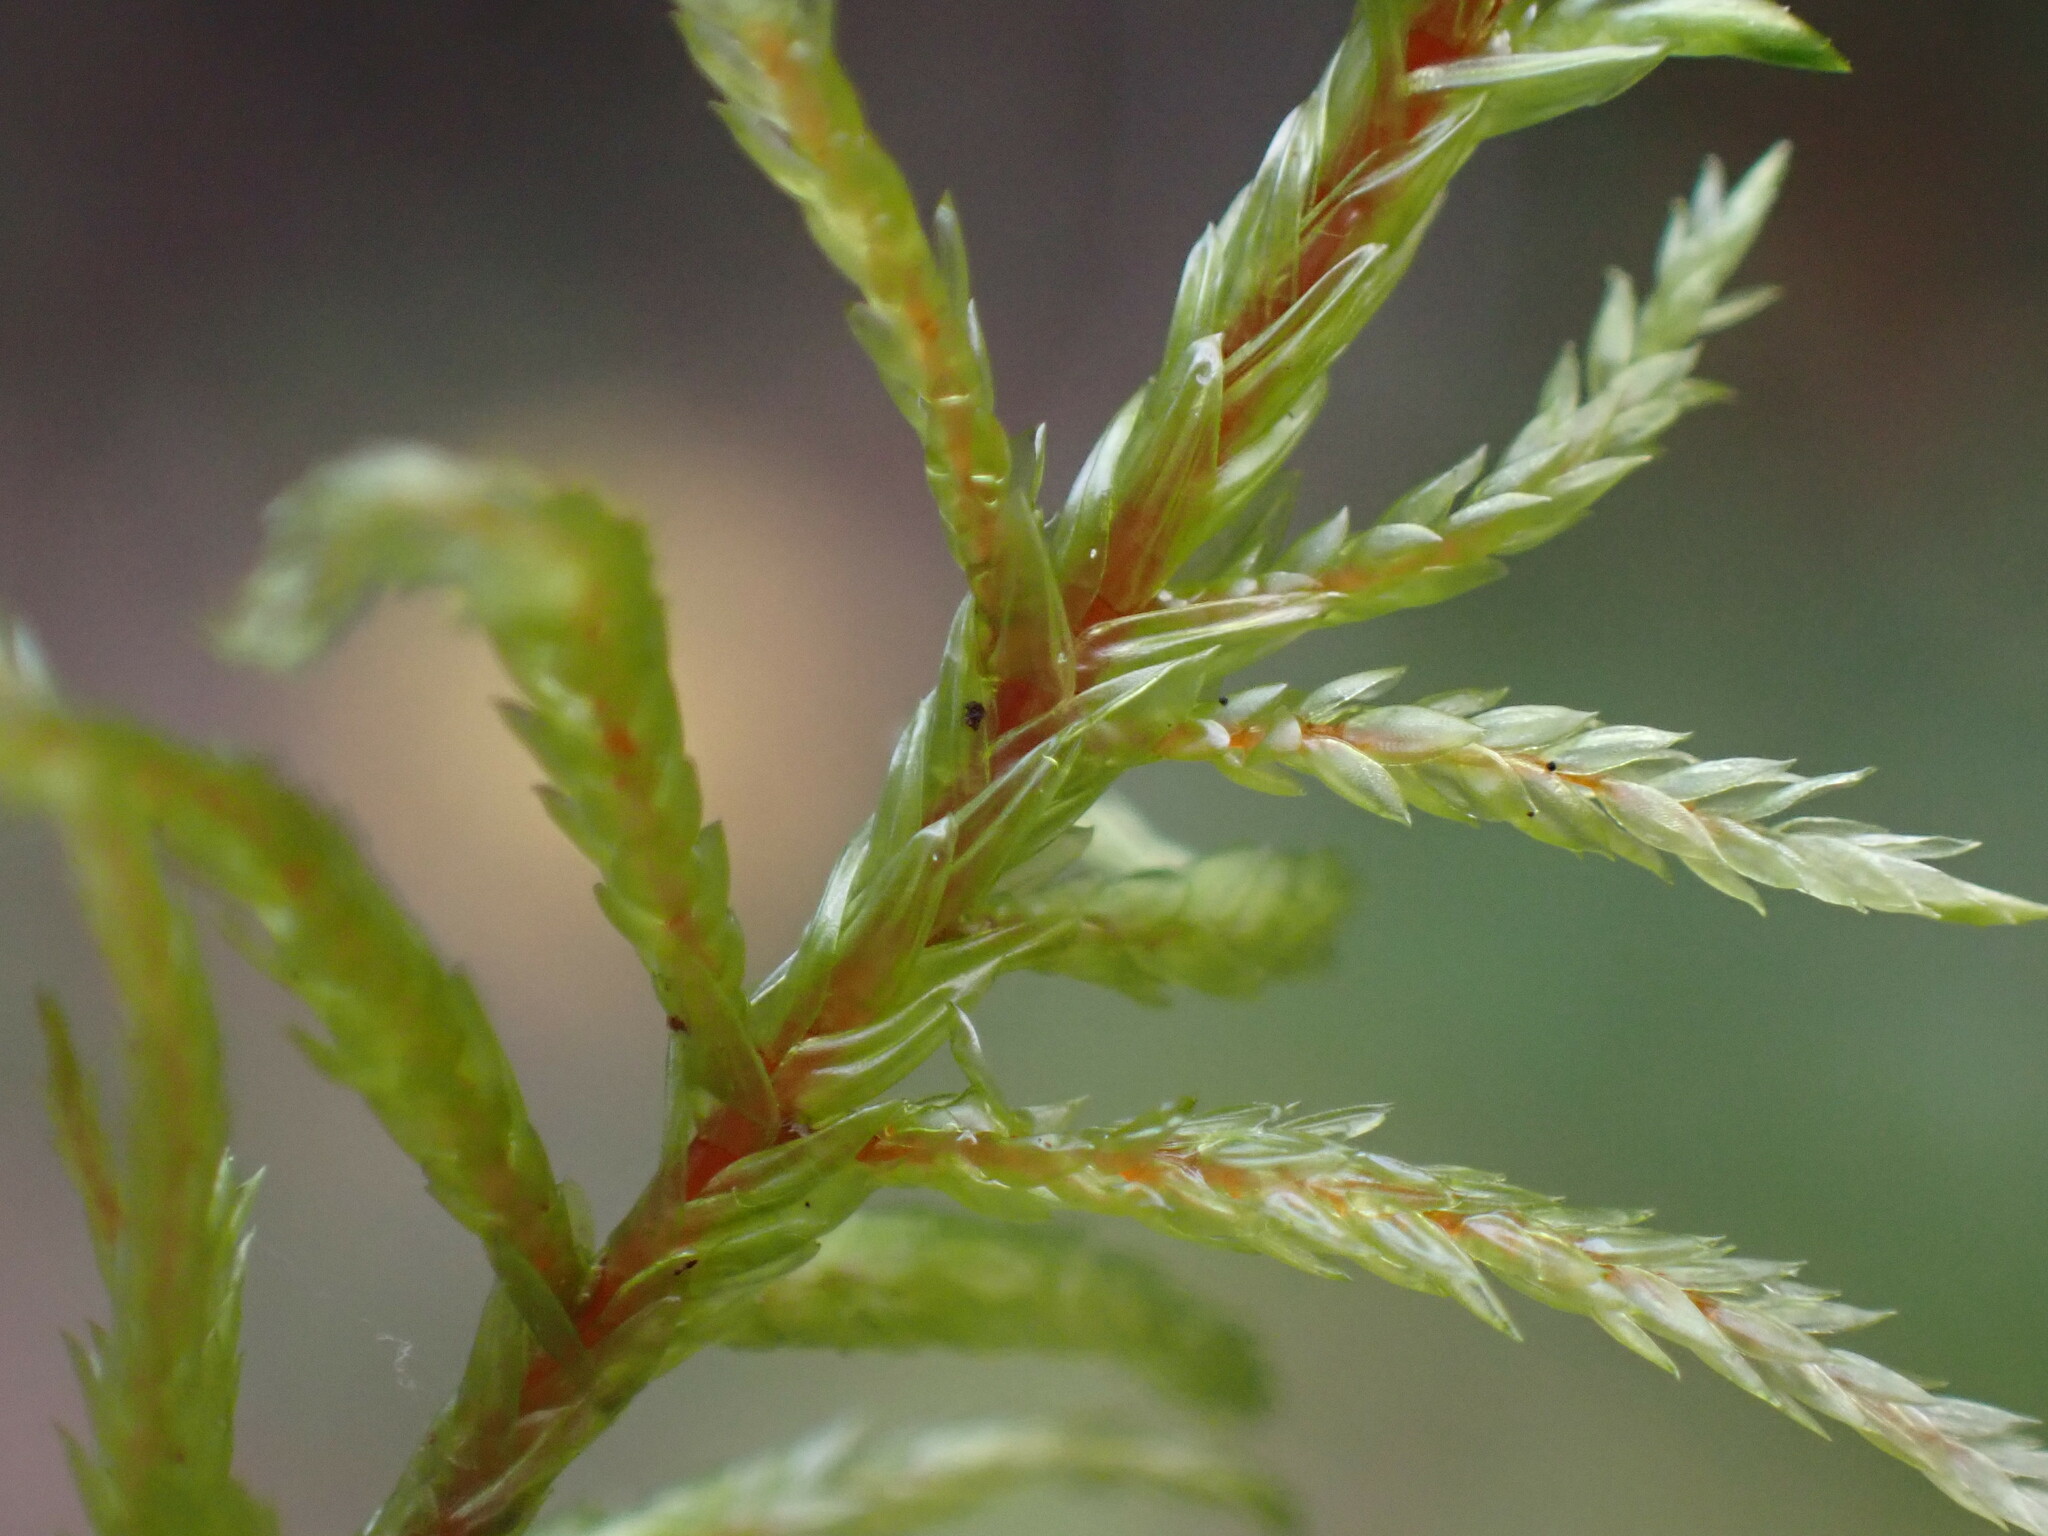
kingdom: Plantae
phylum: Bryophyta
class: Bryopsida
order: Hypnales
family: Hylocomiaceae
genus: Pleurozium
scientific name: Pleurozium schreberi
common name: Red-stemmed feather moss
